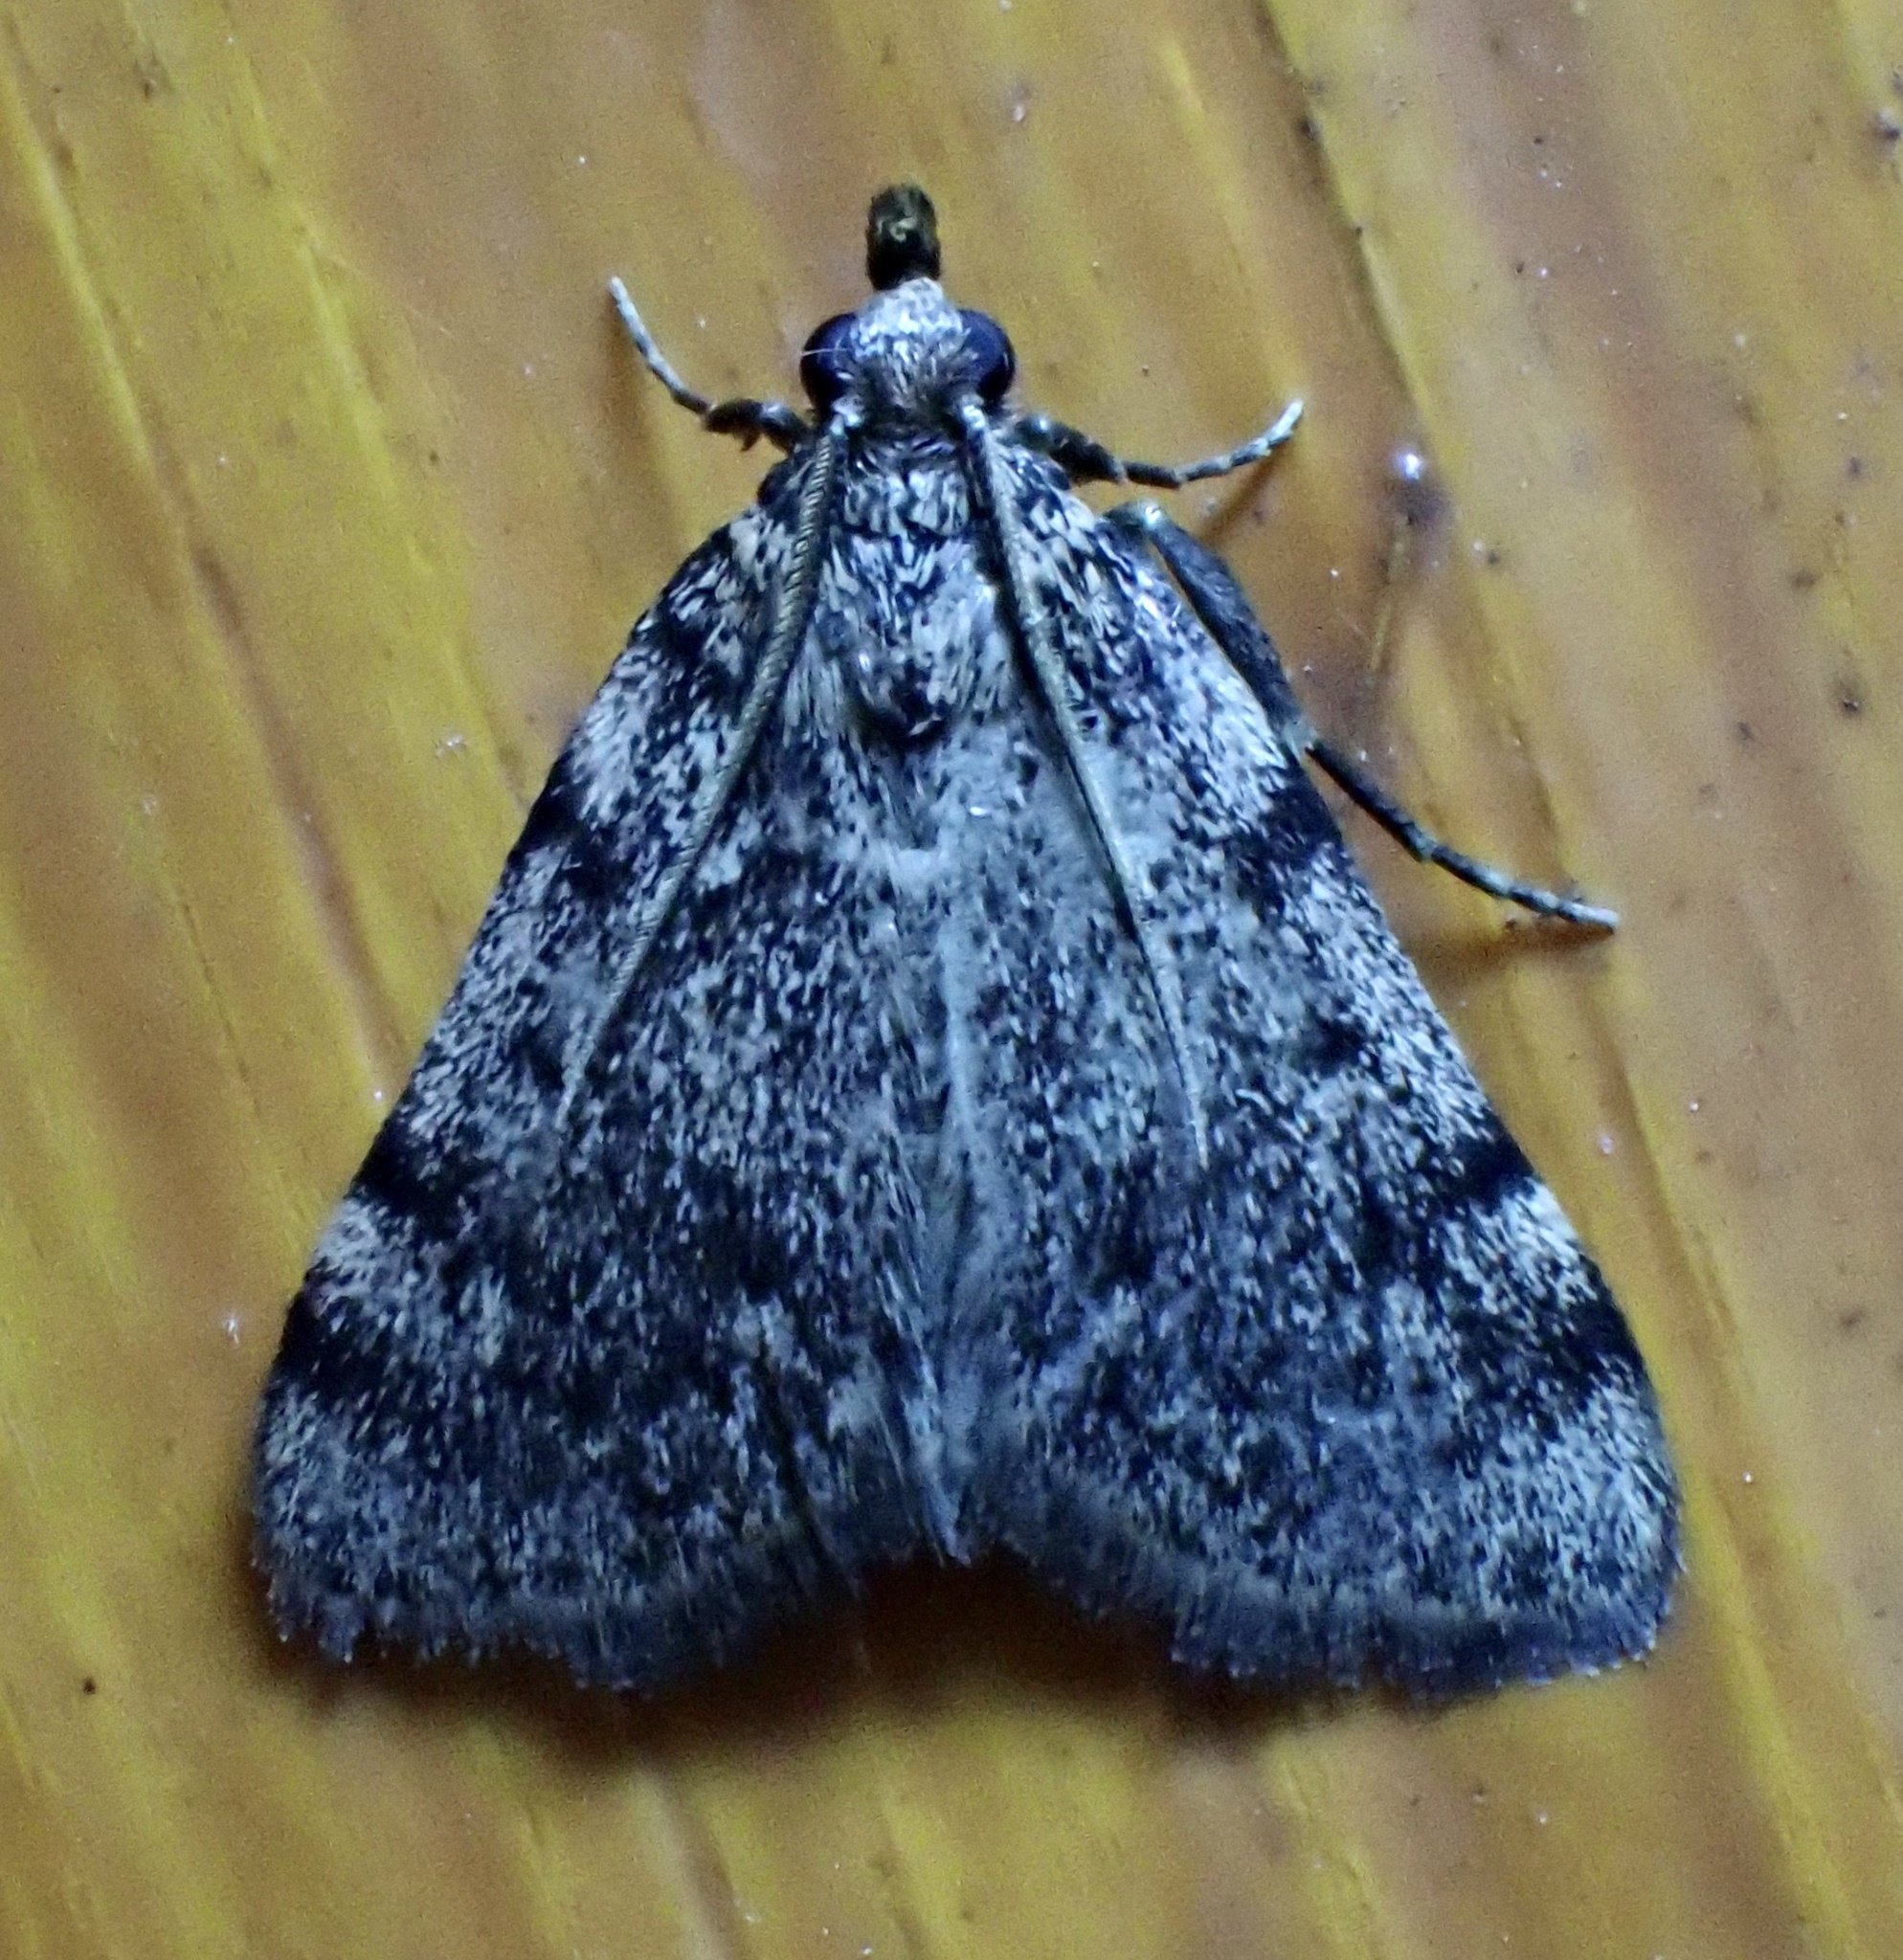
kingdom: Animalia
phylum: Arthropoda
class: Insecta
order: Lepidoptera
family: Pyralidae
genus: Aglossa
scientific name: Aglossa pinguinalis
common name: Large tabby
